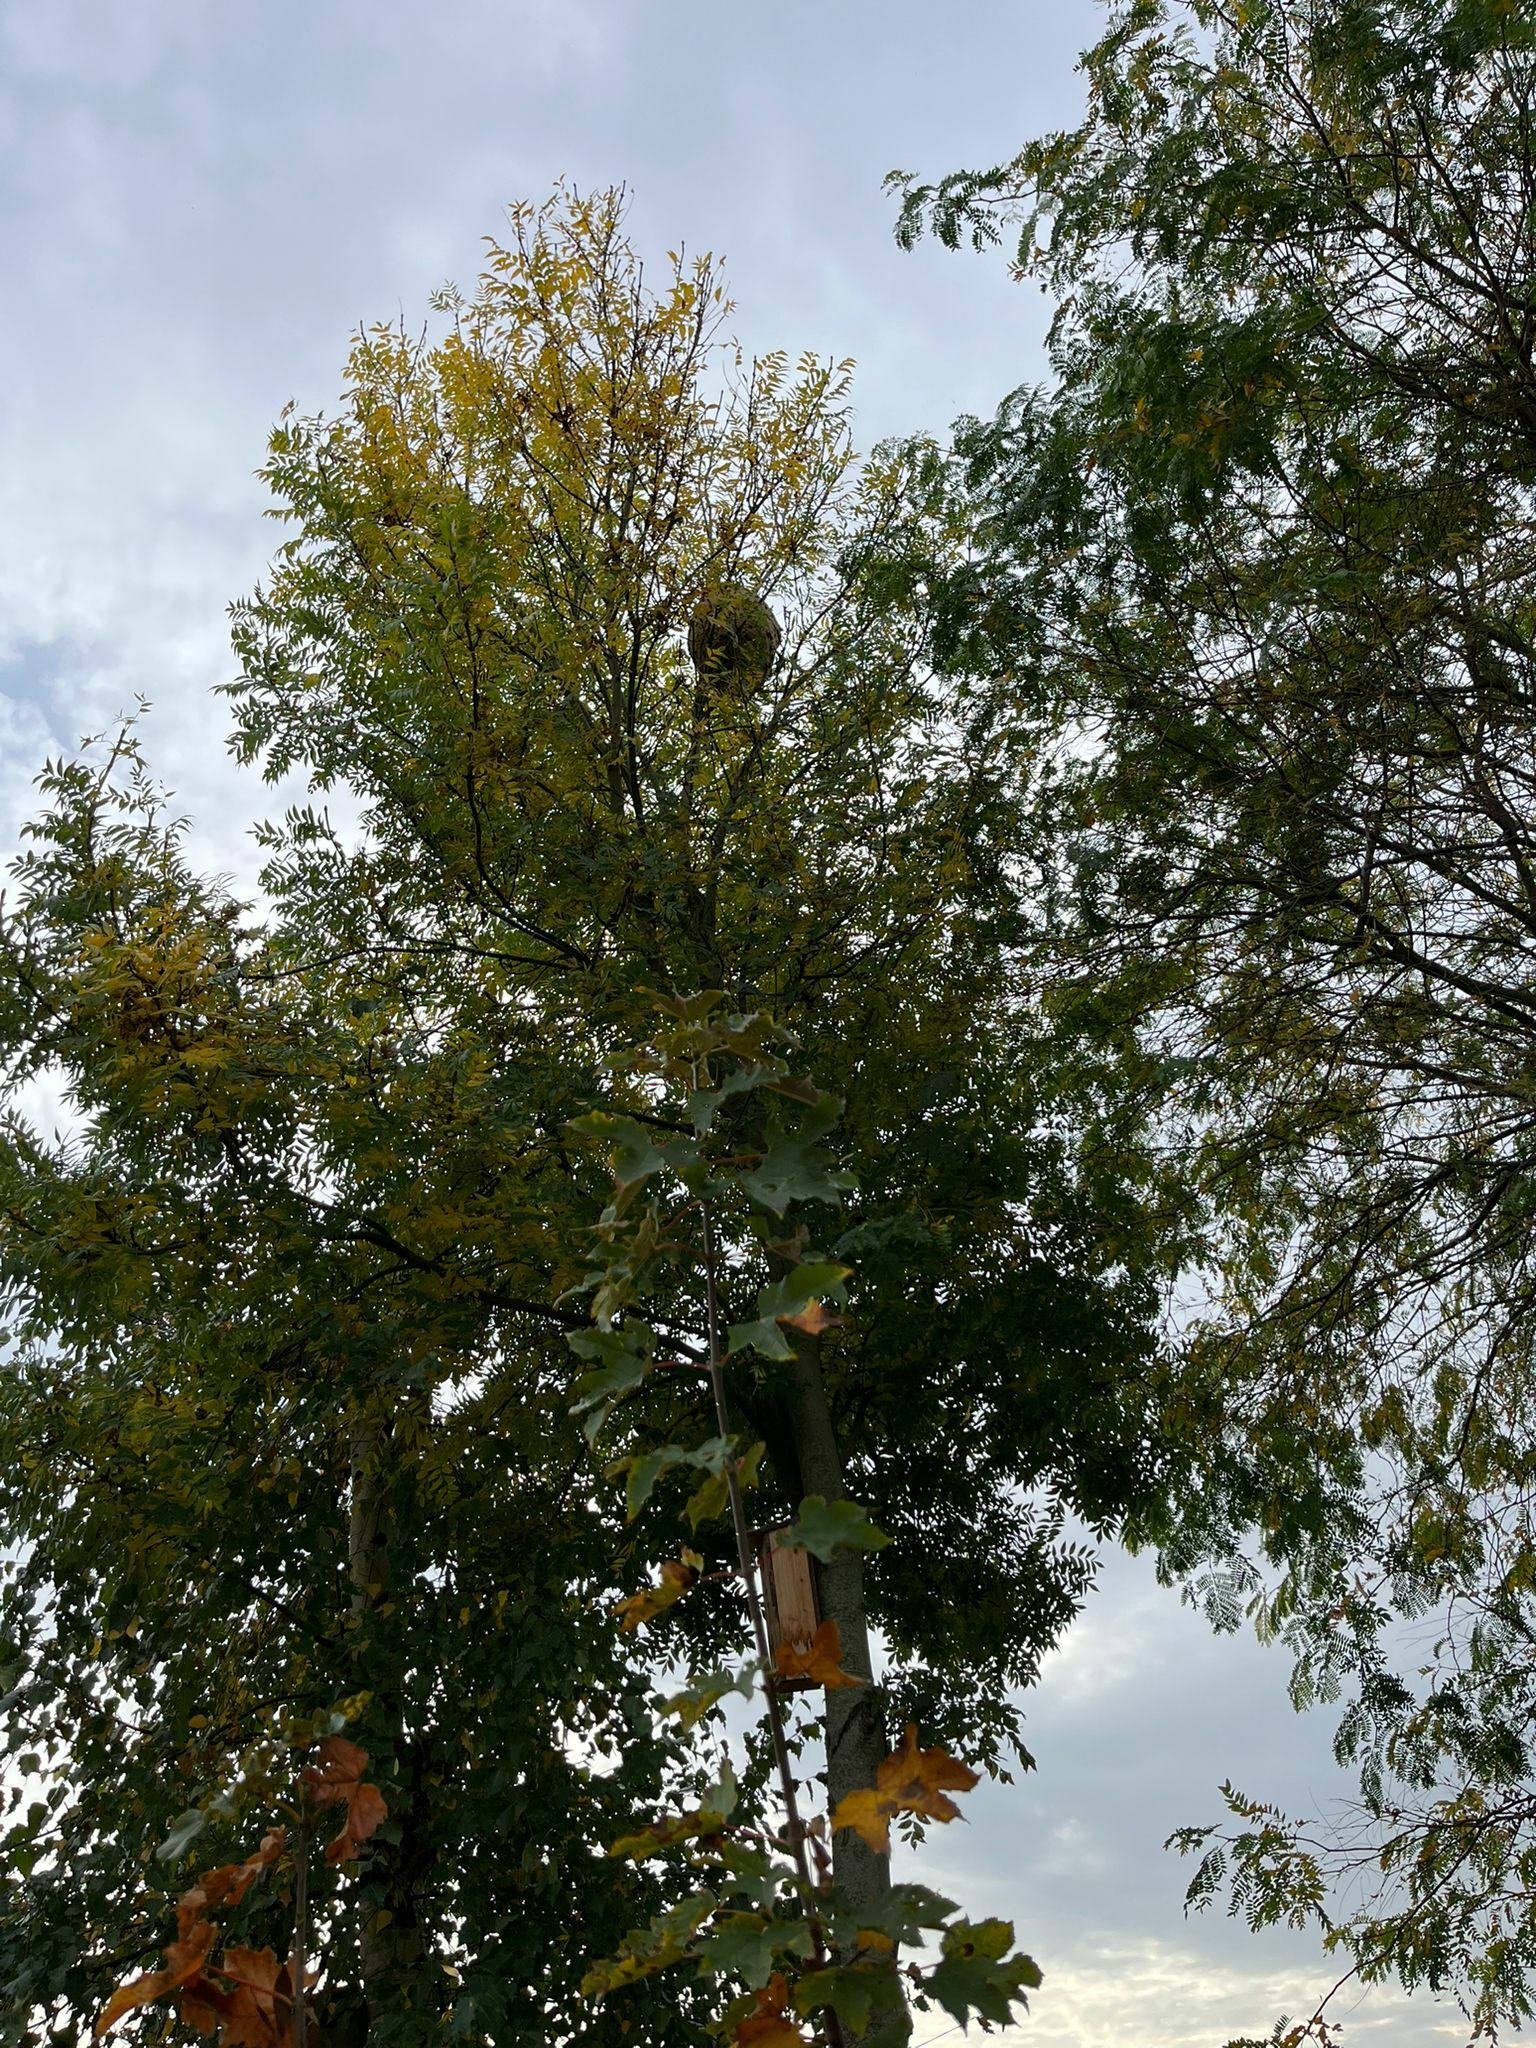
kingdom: Animalia
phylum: Arthropoda
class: Insecta
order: Hymenoptera
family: Vespidae
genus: Vespa
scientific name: Vespa velutina
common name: Asian hornet
